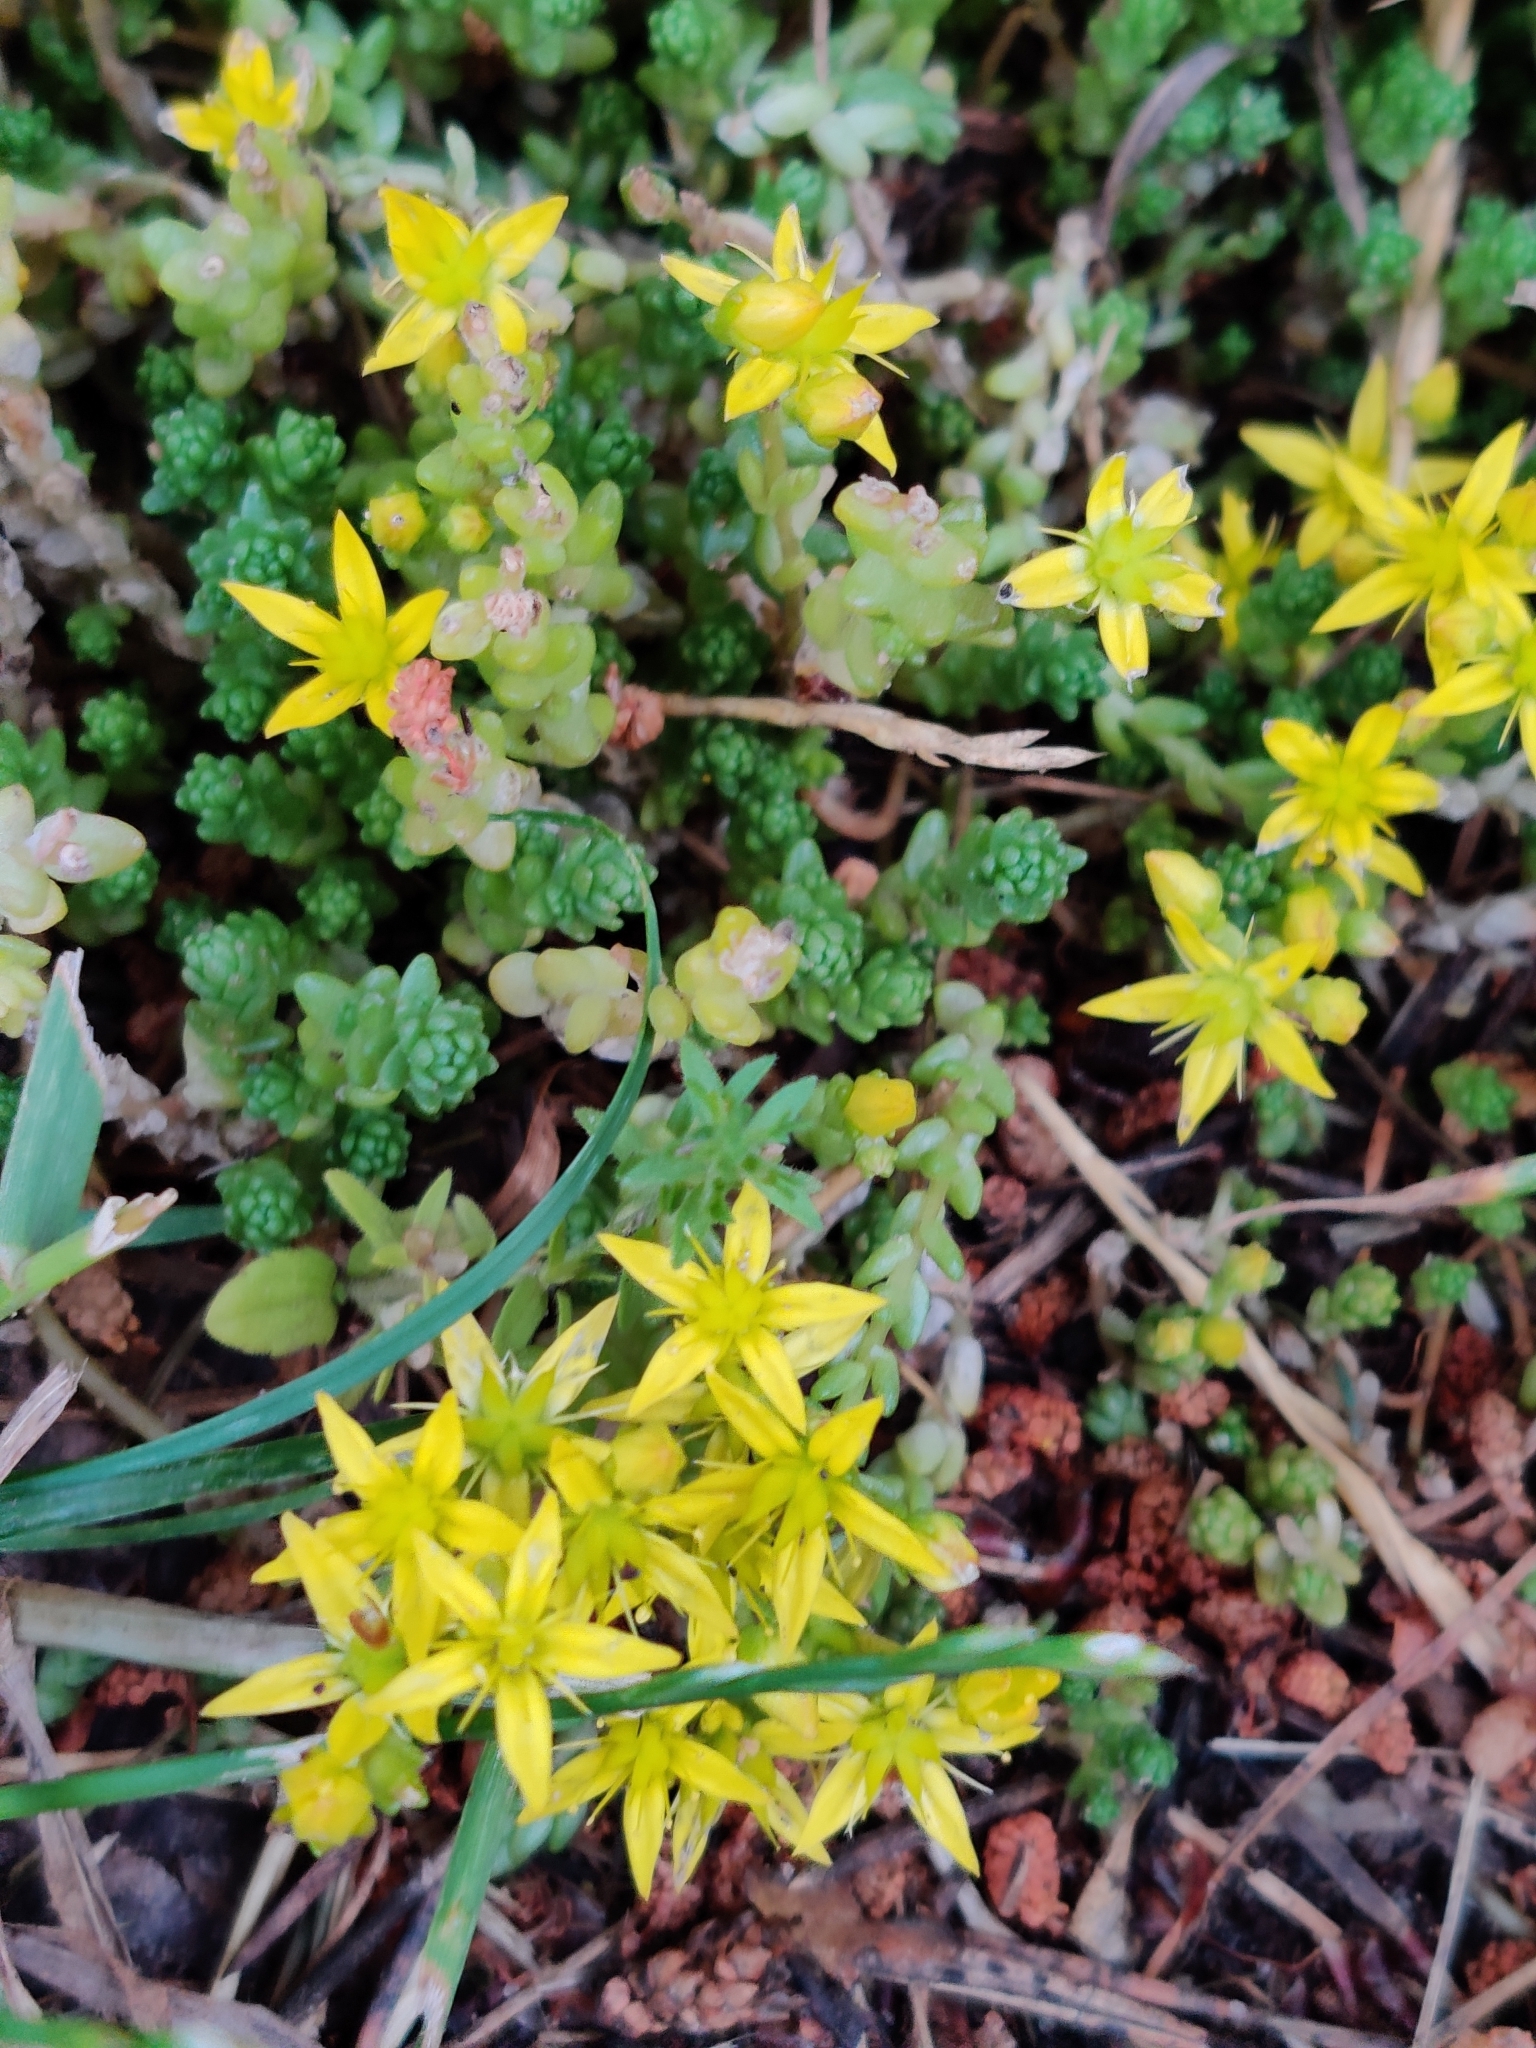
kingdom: Plantae
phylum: Tracheophyta
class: Magnoliopsida
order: Saxifragales
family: Crassulaceae
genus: Sedum
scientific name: Sedum acre
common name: Biting stonecrop
